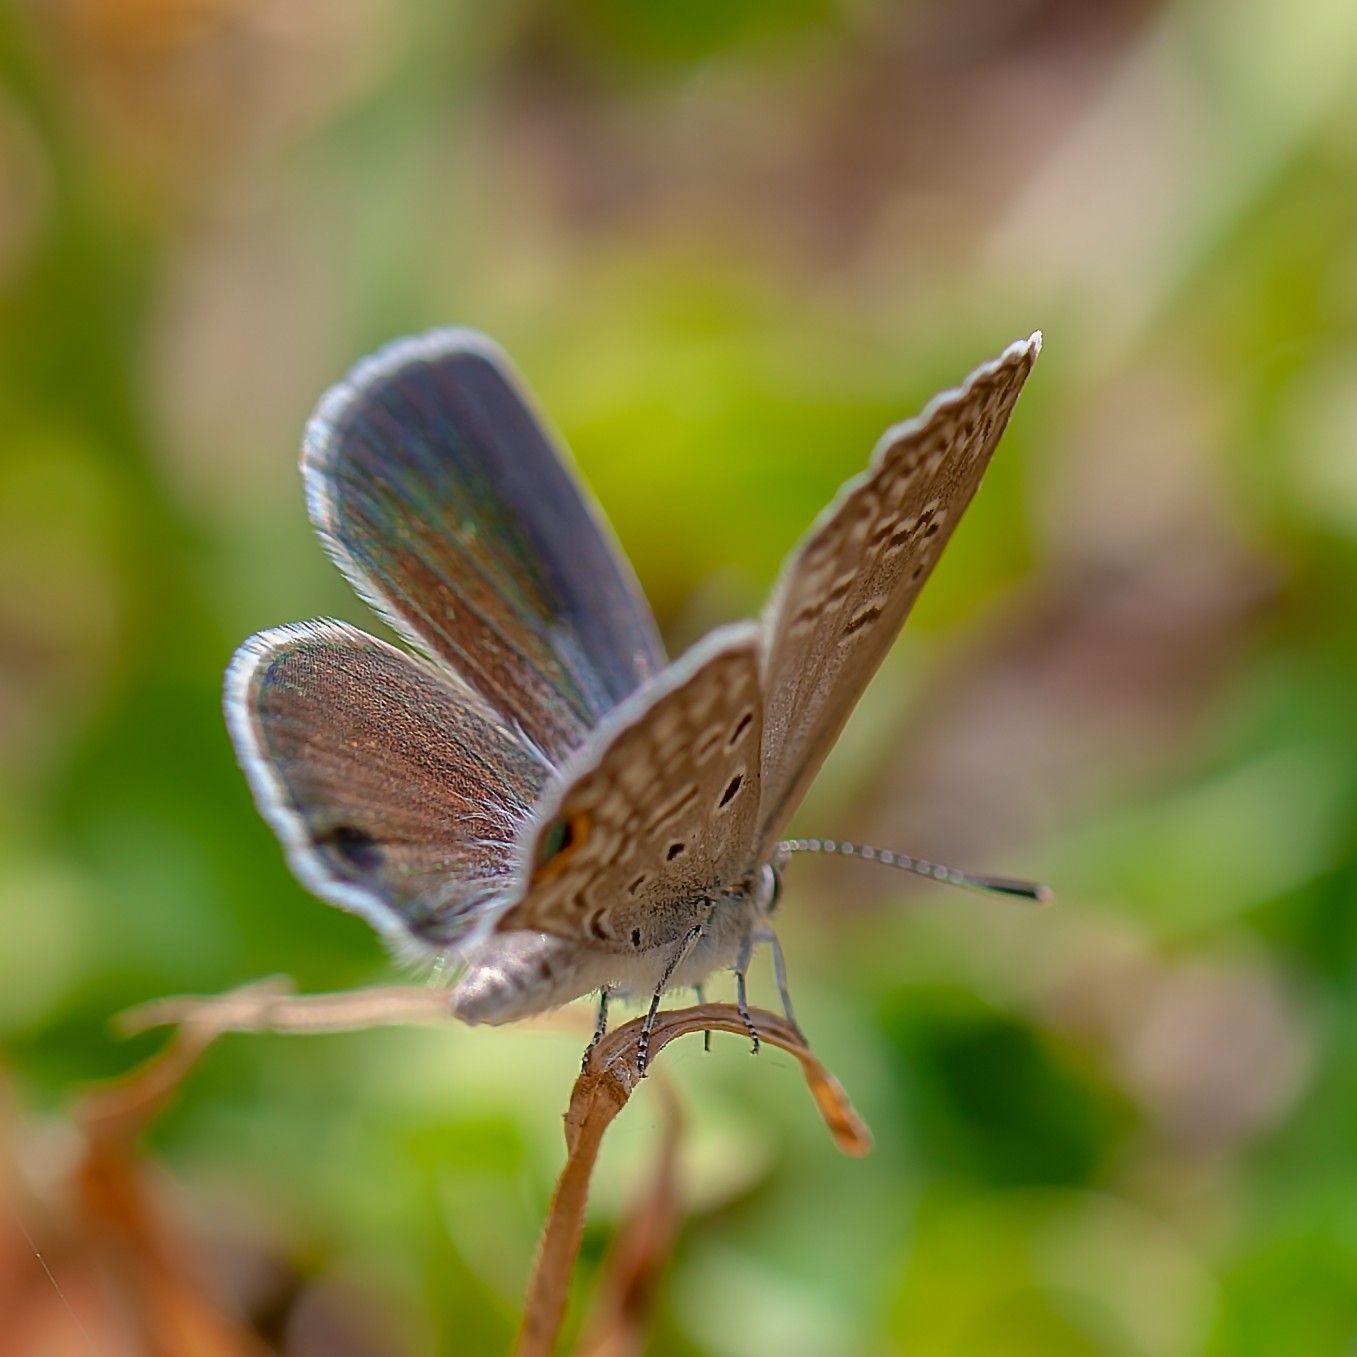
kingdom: Animalia
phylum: Arthropoda
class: Insecta
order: Lepidoptera
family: Lycaenidae
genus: Hemiargus
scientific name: Hemiargus ceraunus
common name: Ceraunus blue
